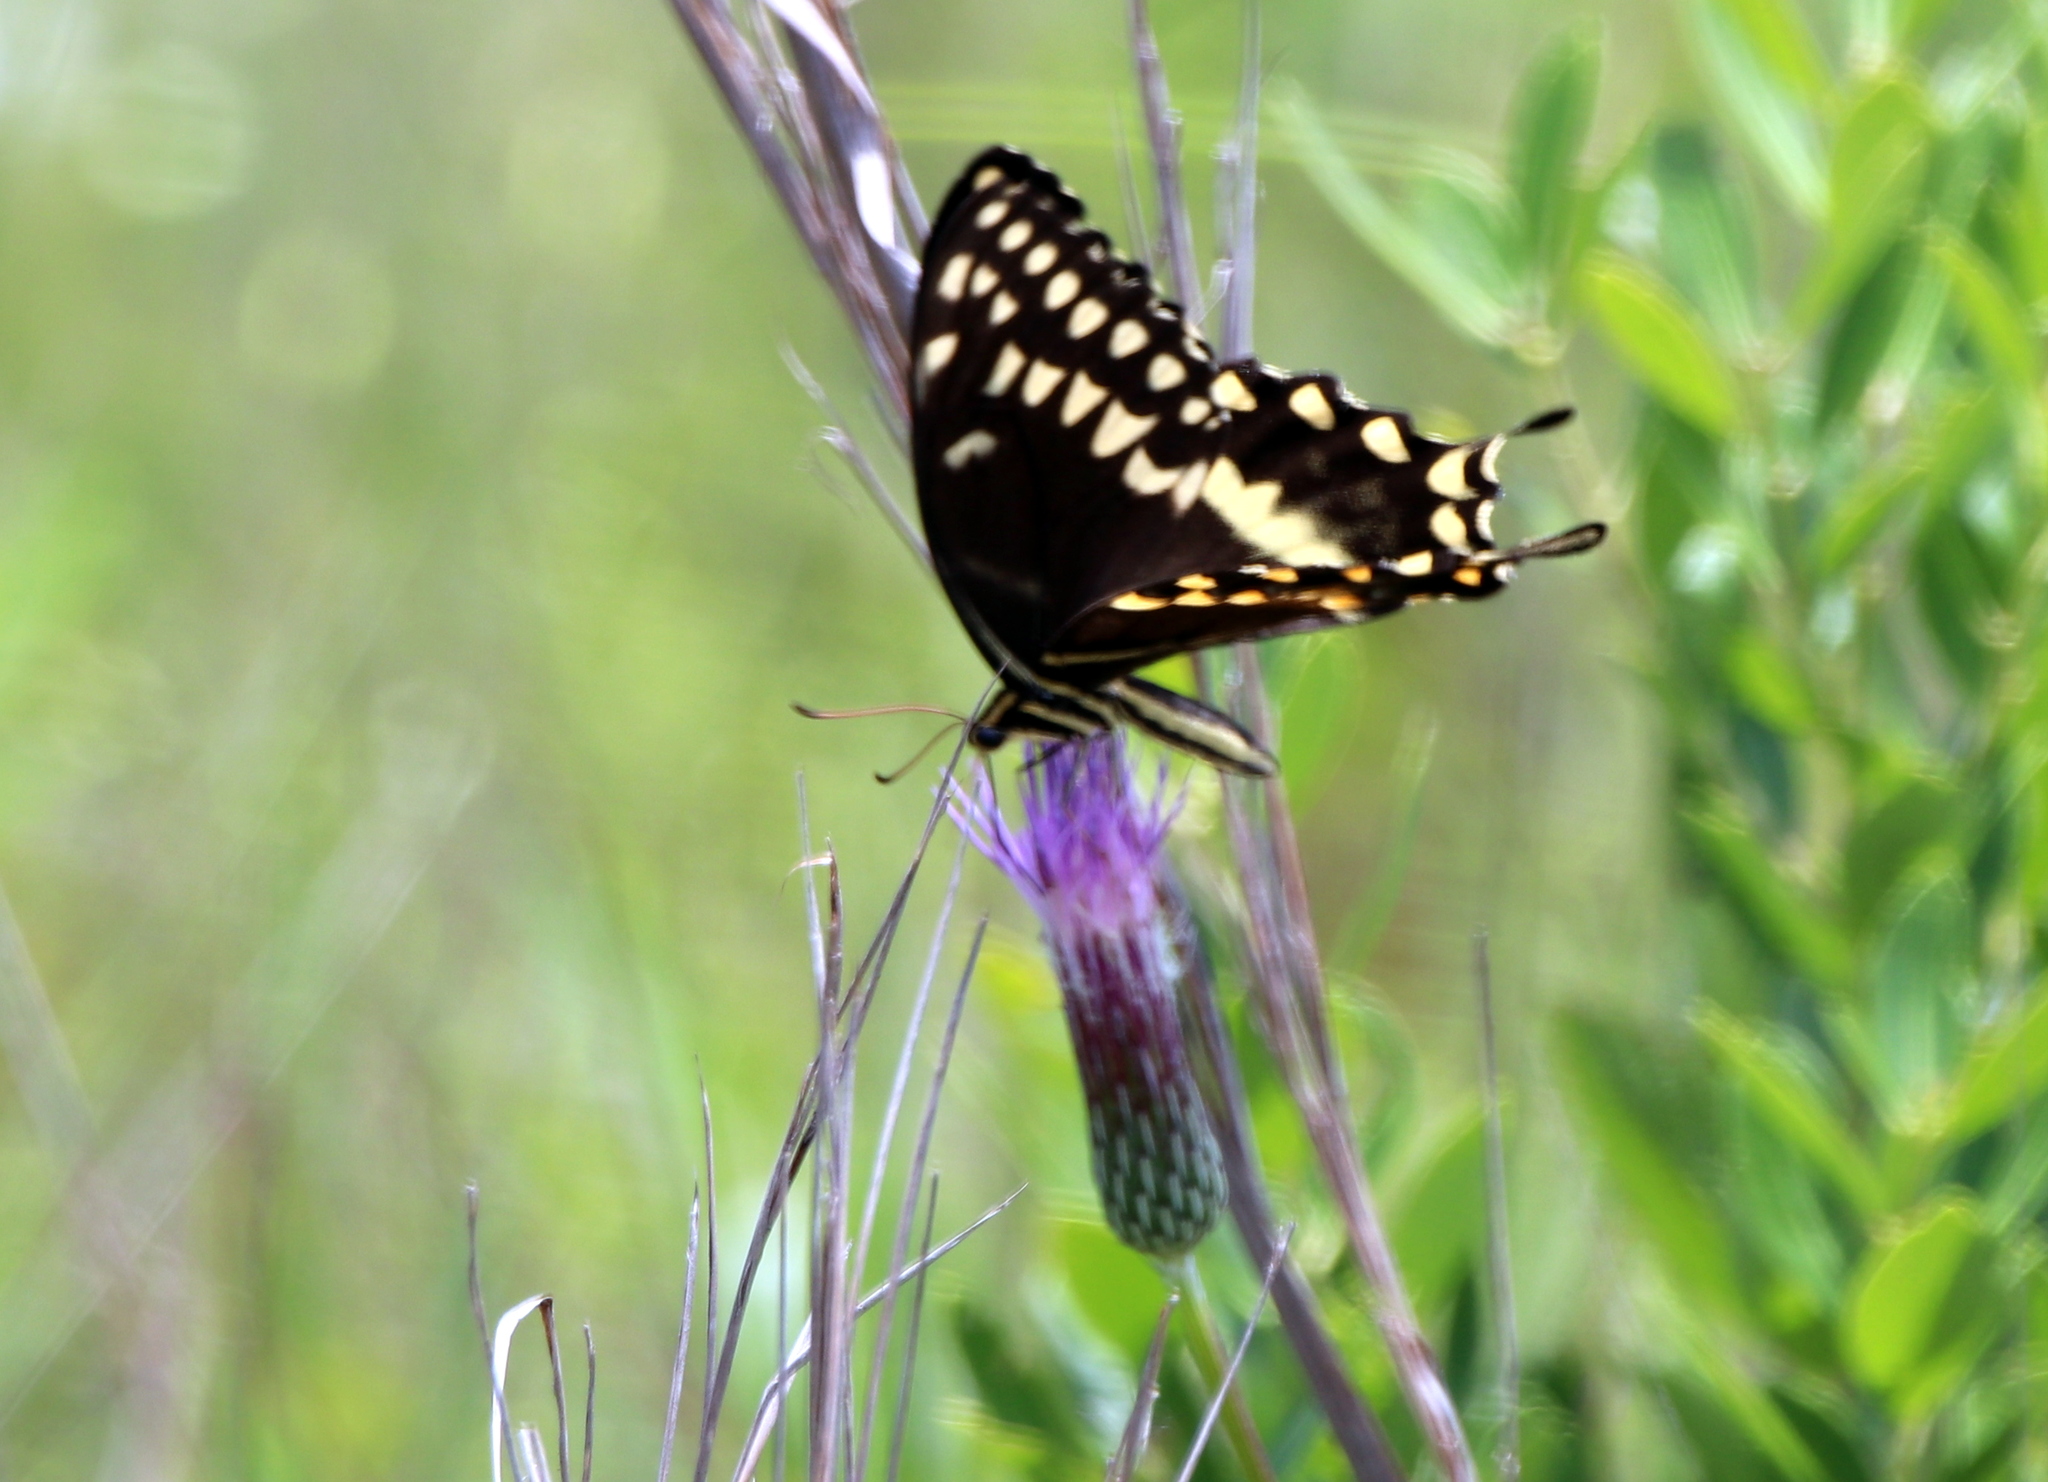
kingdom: Animalia
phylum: Arthropoda
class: Insecta
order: Lepidoptera
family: Papilionidae
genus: Papilio
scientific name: Papilio palamedes
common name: Palamedes swallowtail
